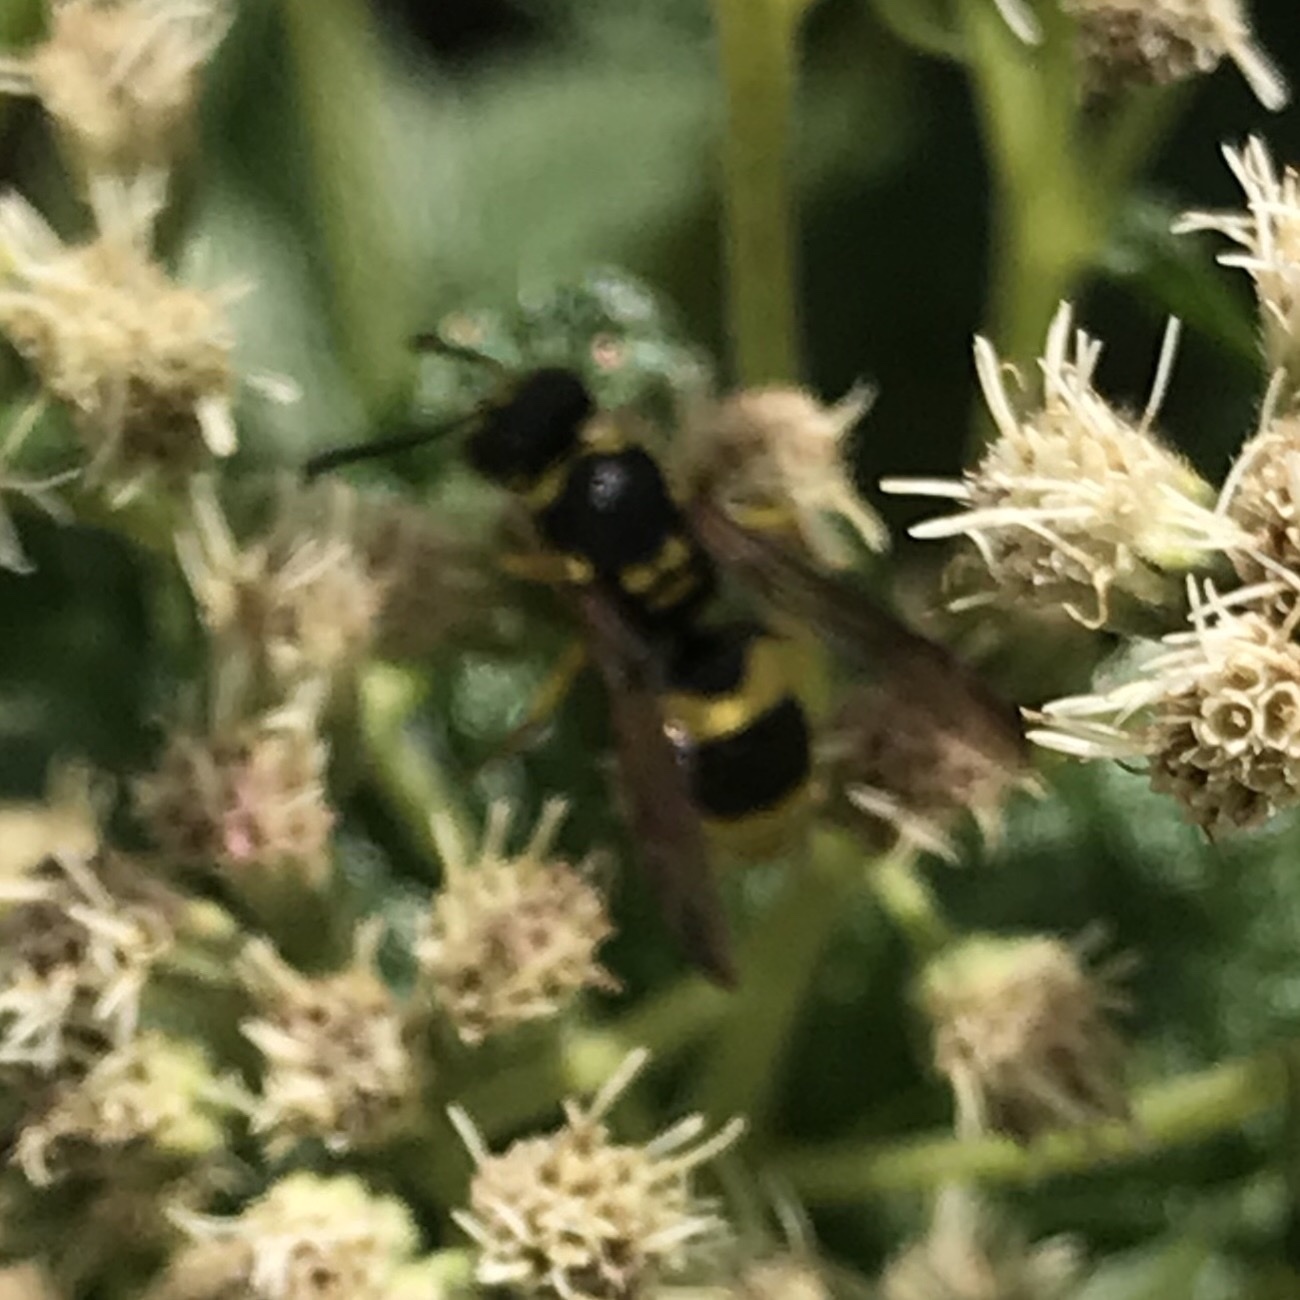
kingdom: Animalia
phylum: Arthropoda
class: Insecta
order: Hymenoptera
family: Vespidae
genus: Ancistrocerus
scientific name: Ancistrocerus gazella
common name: European tube wasp
